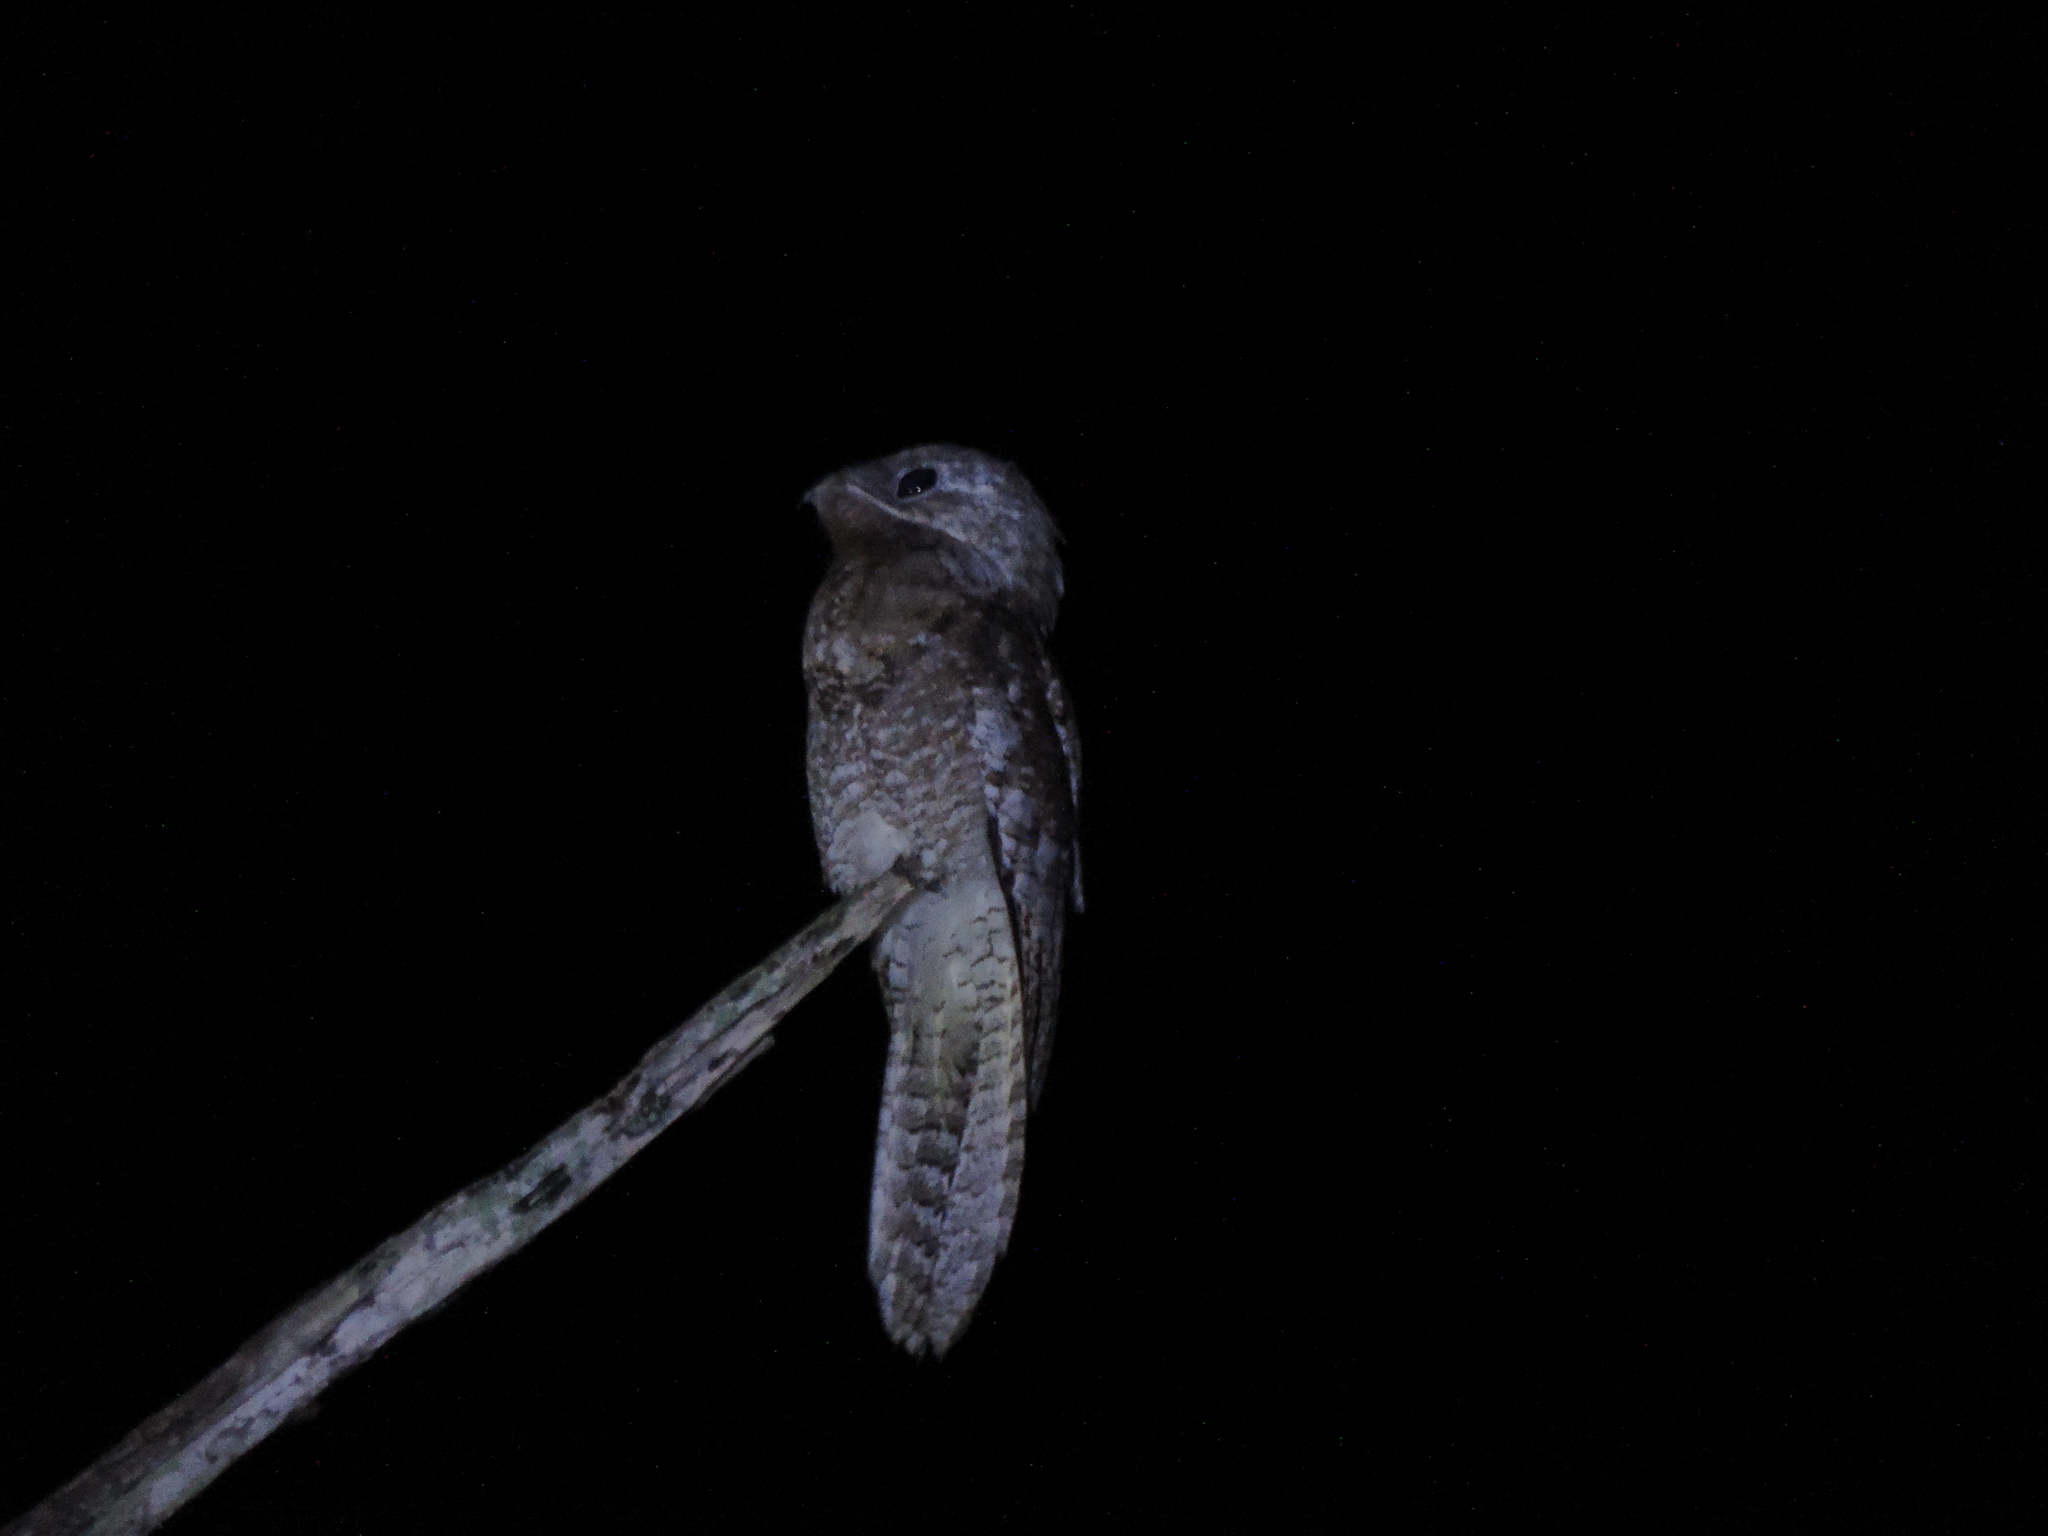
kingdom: Animalia
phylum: Chordata
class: Aves
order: Nyctibiiformes
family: Nyctibiidae
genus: Nyctibius
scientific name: Nyctibius grandis
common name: Great potoo
